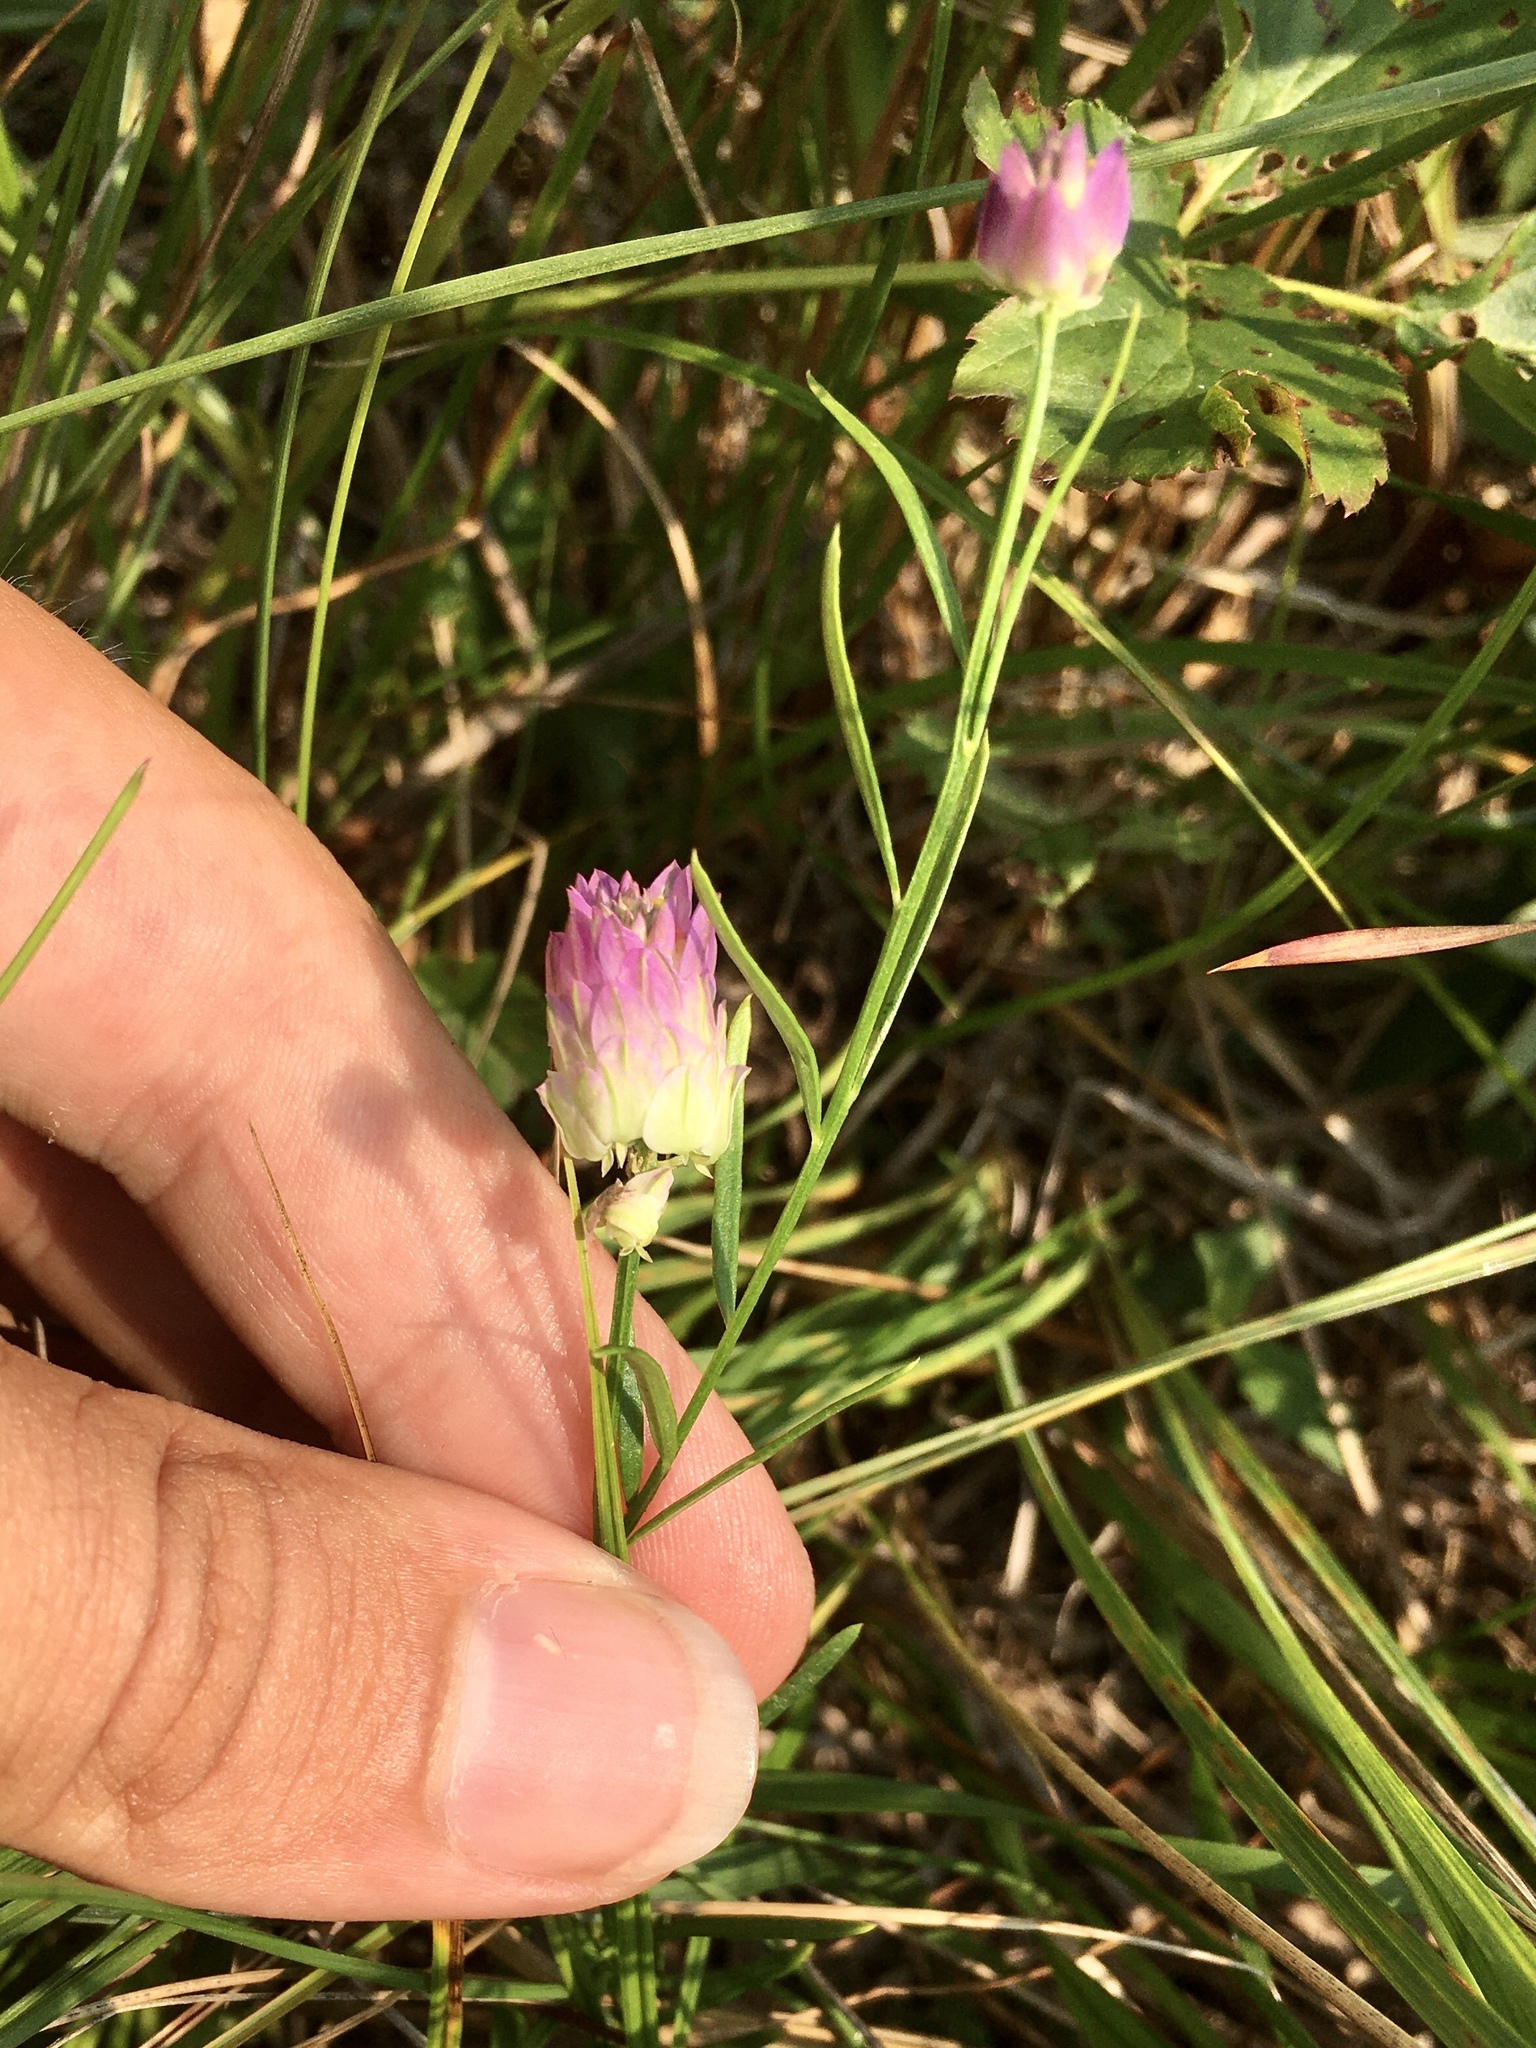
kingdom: Plantae
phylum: Tracheophyta
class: Magnoliopsida
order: Fabales
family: Polygalaceae
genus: Polygala
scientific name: Polygala sanguinea
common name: Blood milkwort
